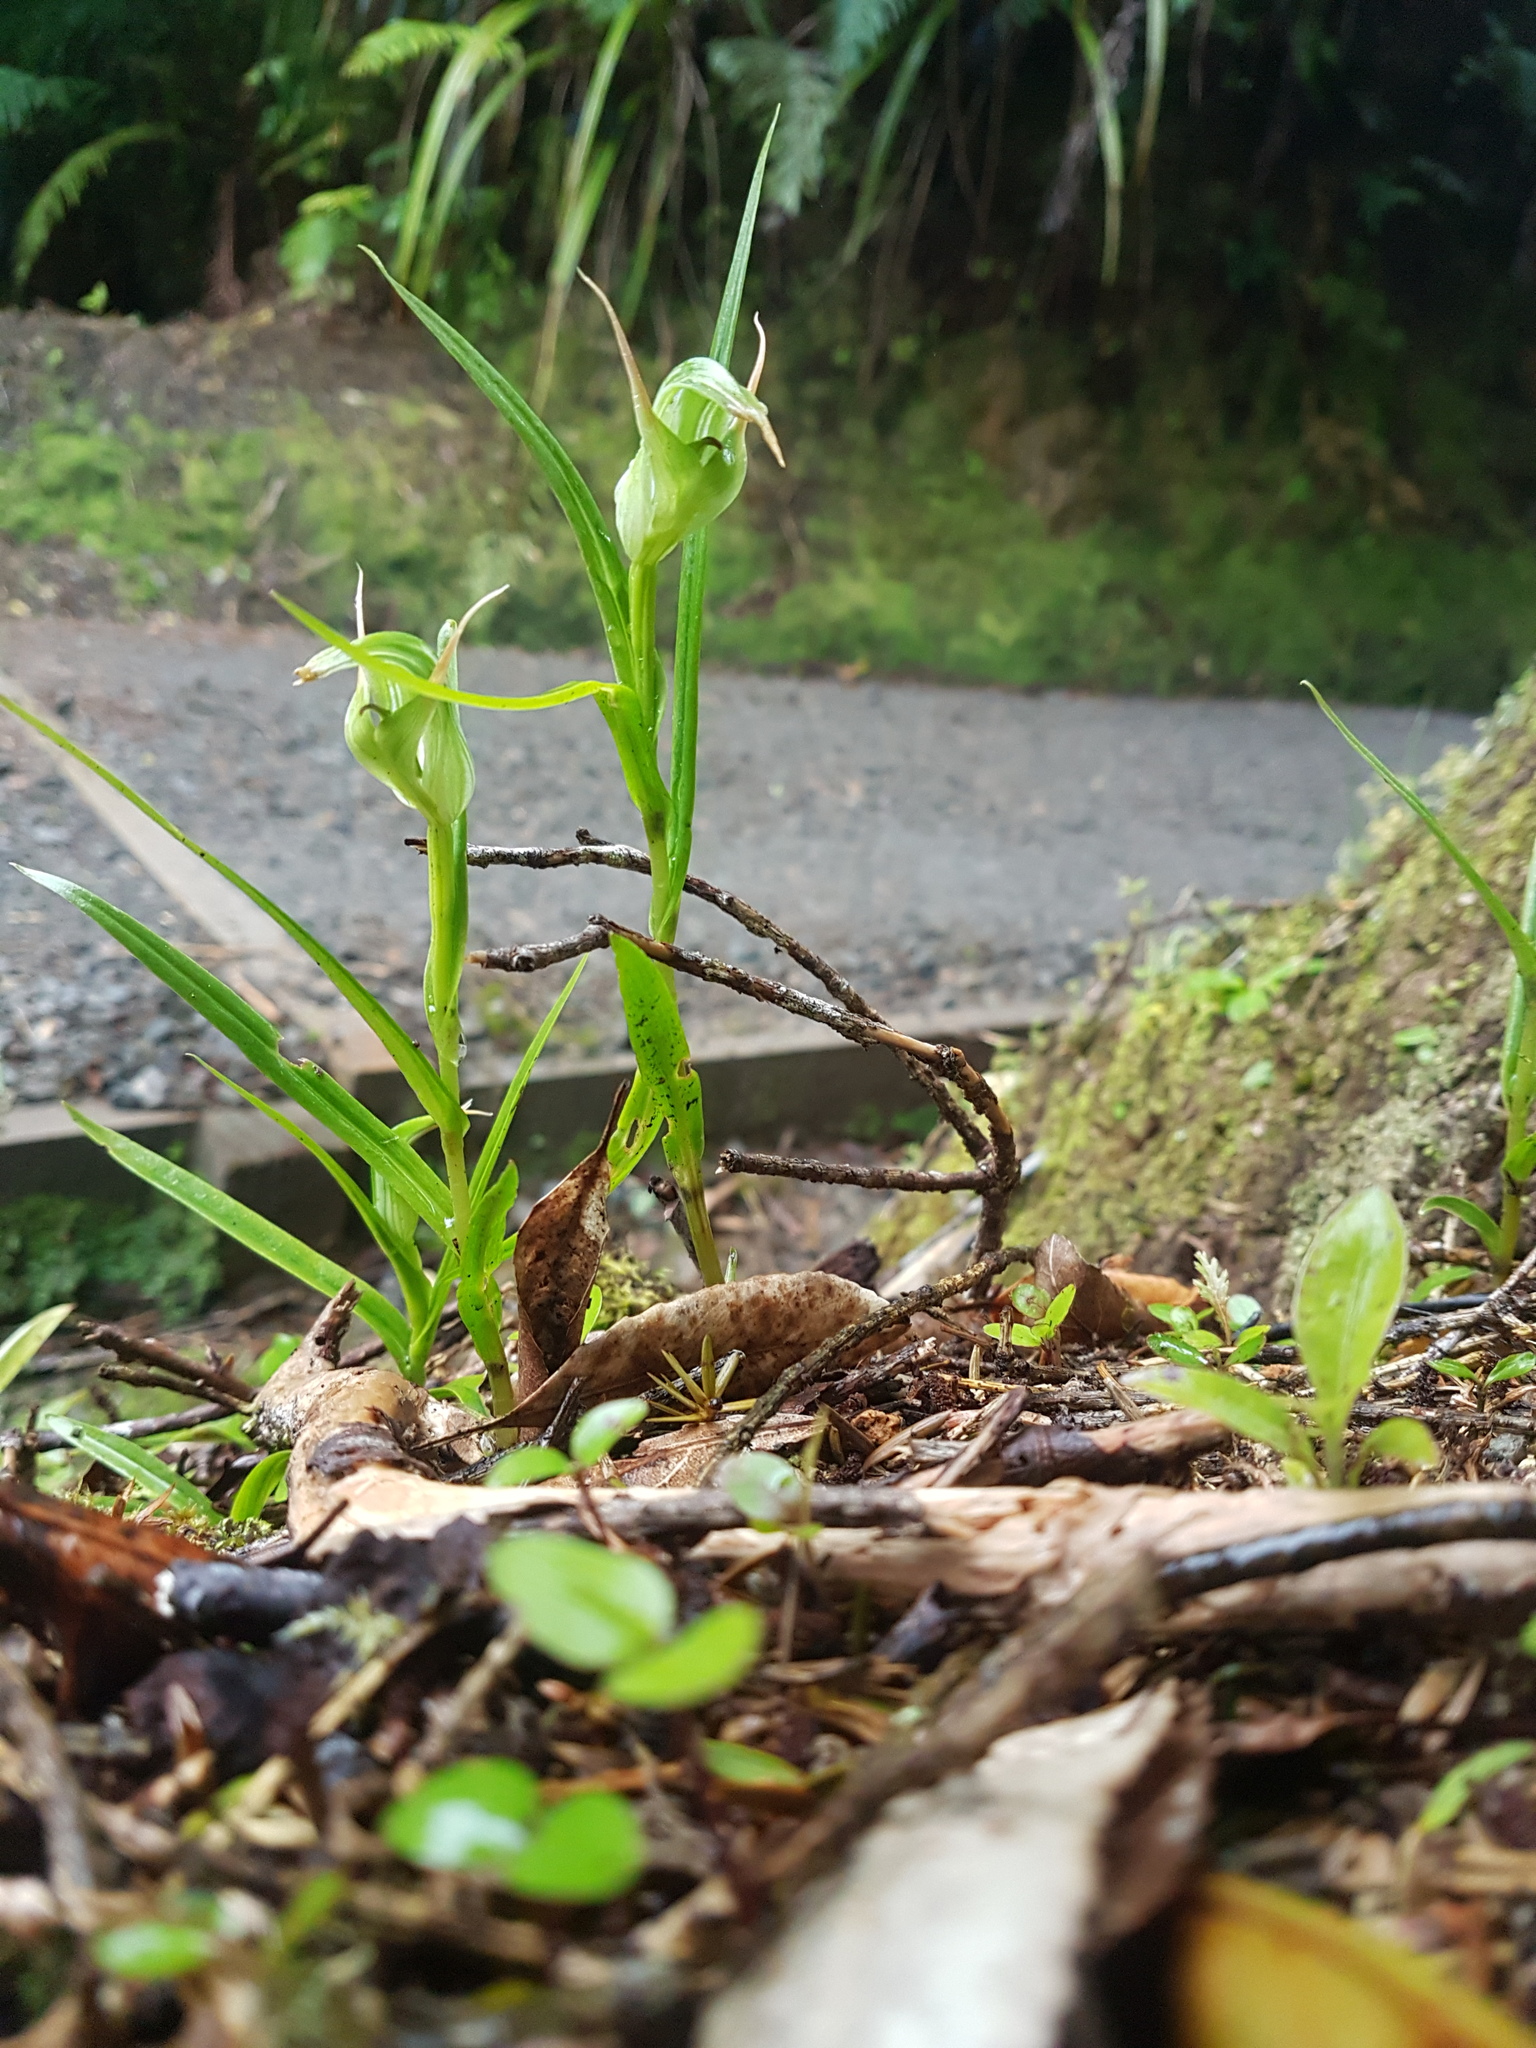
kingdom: Plantae
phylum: Tracheophyta
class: Liliopsida
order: Asparagales
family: Orchidaceae
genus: Pterostylis
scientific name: Pterostylis graminea
